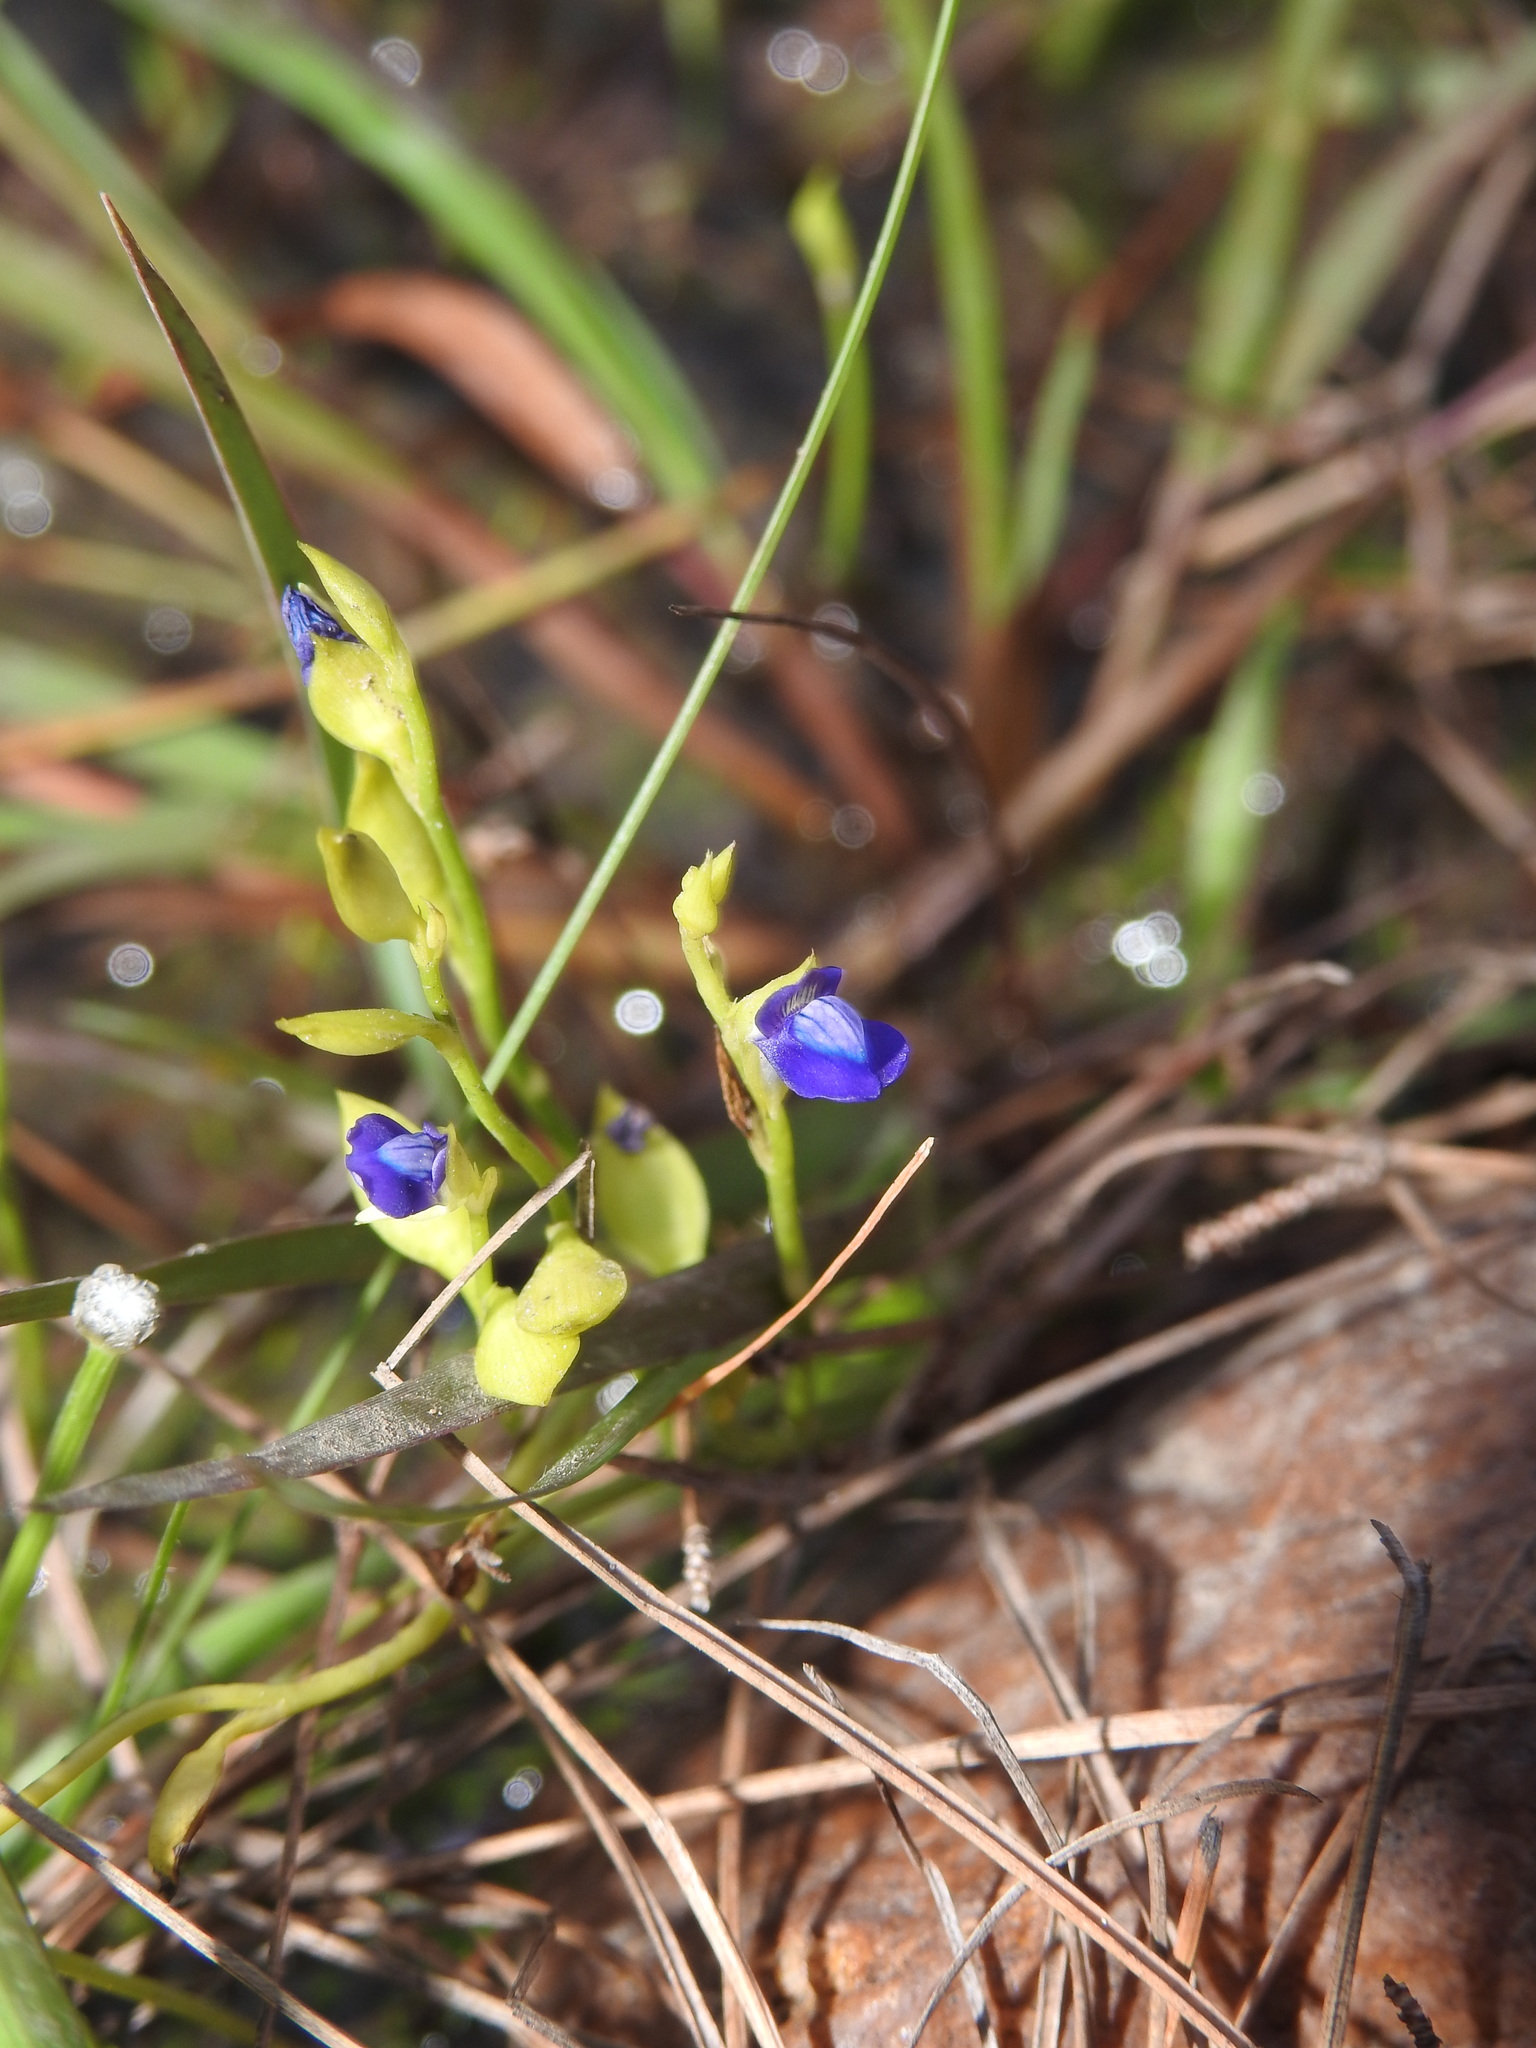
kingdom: Plantae
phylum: Tracheophyta
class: Magnoliopsida
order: Lamiales
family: Lentibulariaceae
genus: Utricularia
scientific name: Utricularia polygaloides
